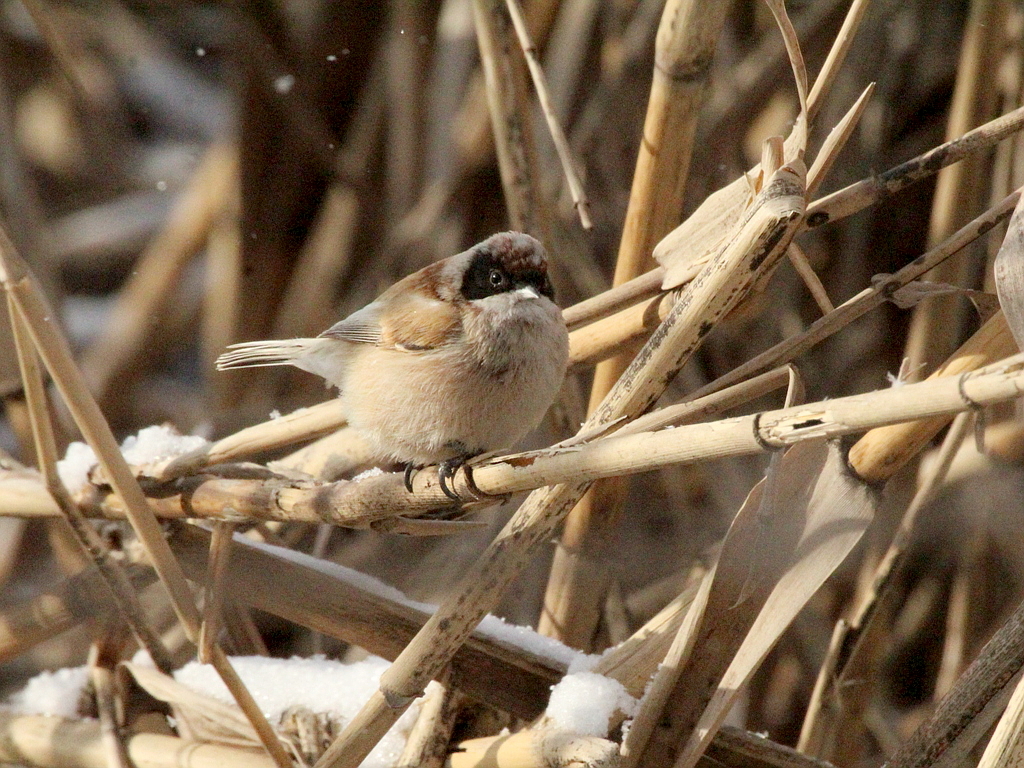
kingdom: Animalia
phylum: Chordata
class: Aves
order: Passeriformes
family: Remizidae
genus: Remiz
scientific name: Remiz pendulinus
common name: Eurasian penduline tit
